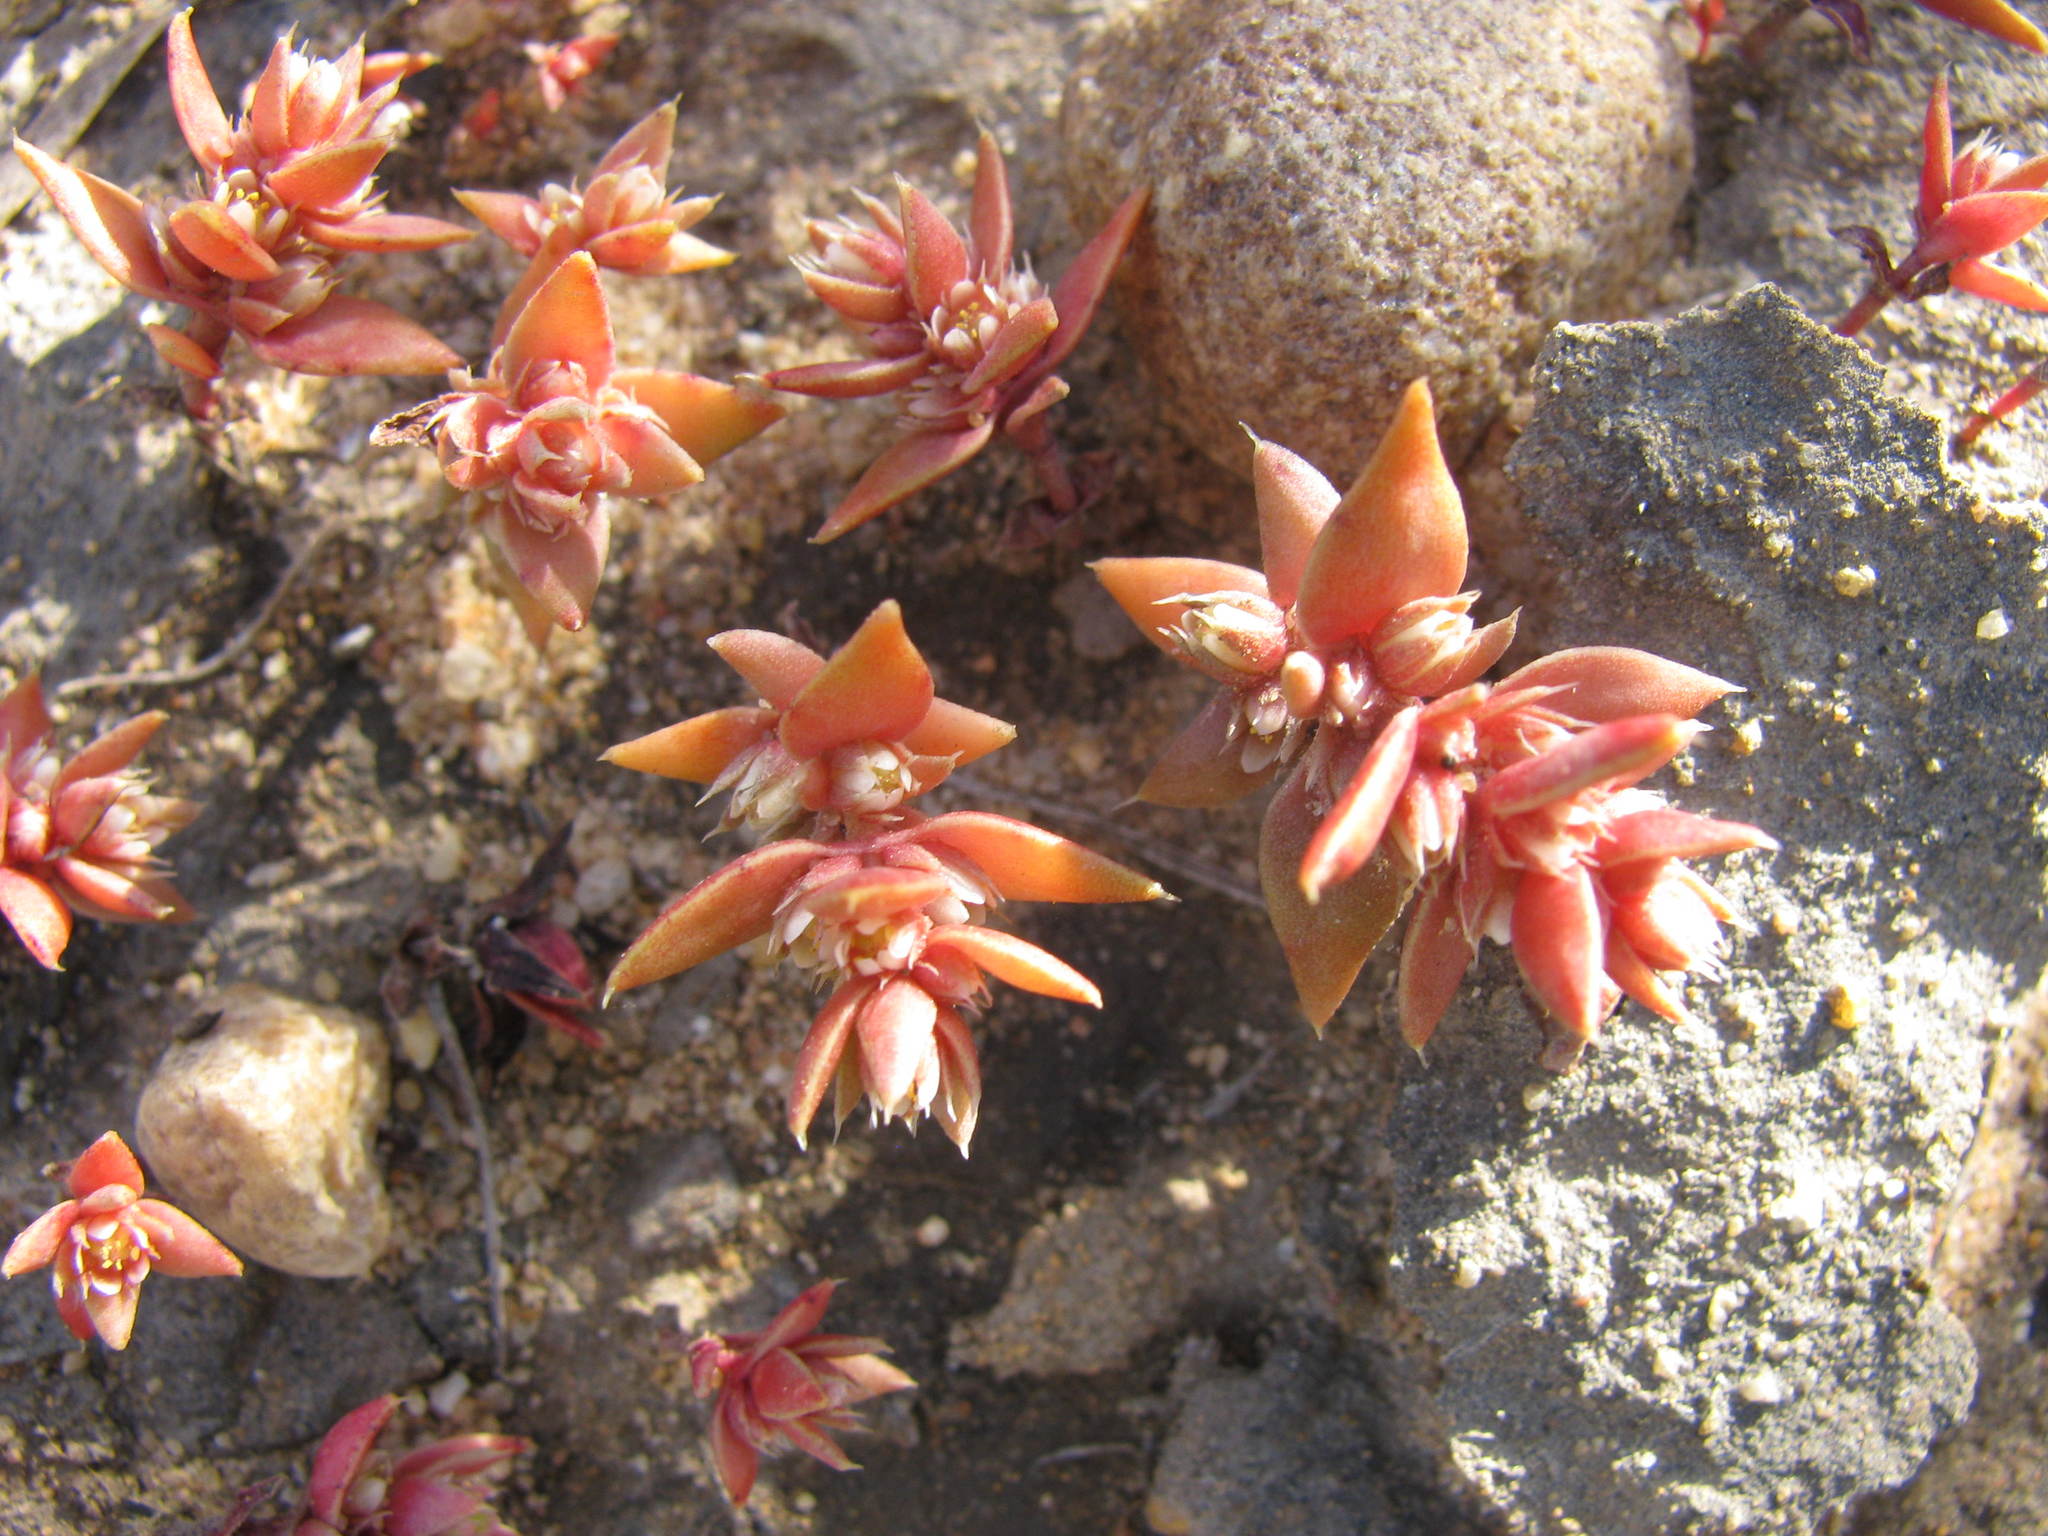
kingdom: Plantae
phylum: Tracheophyta
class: Magnoliopsida
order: Saxifragales
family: Crassulaceae
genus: Crassula
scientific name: Crassula bergioides
